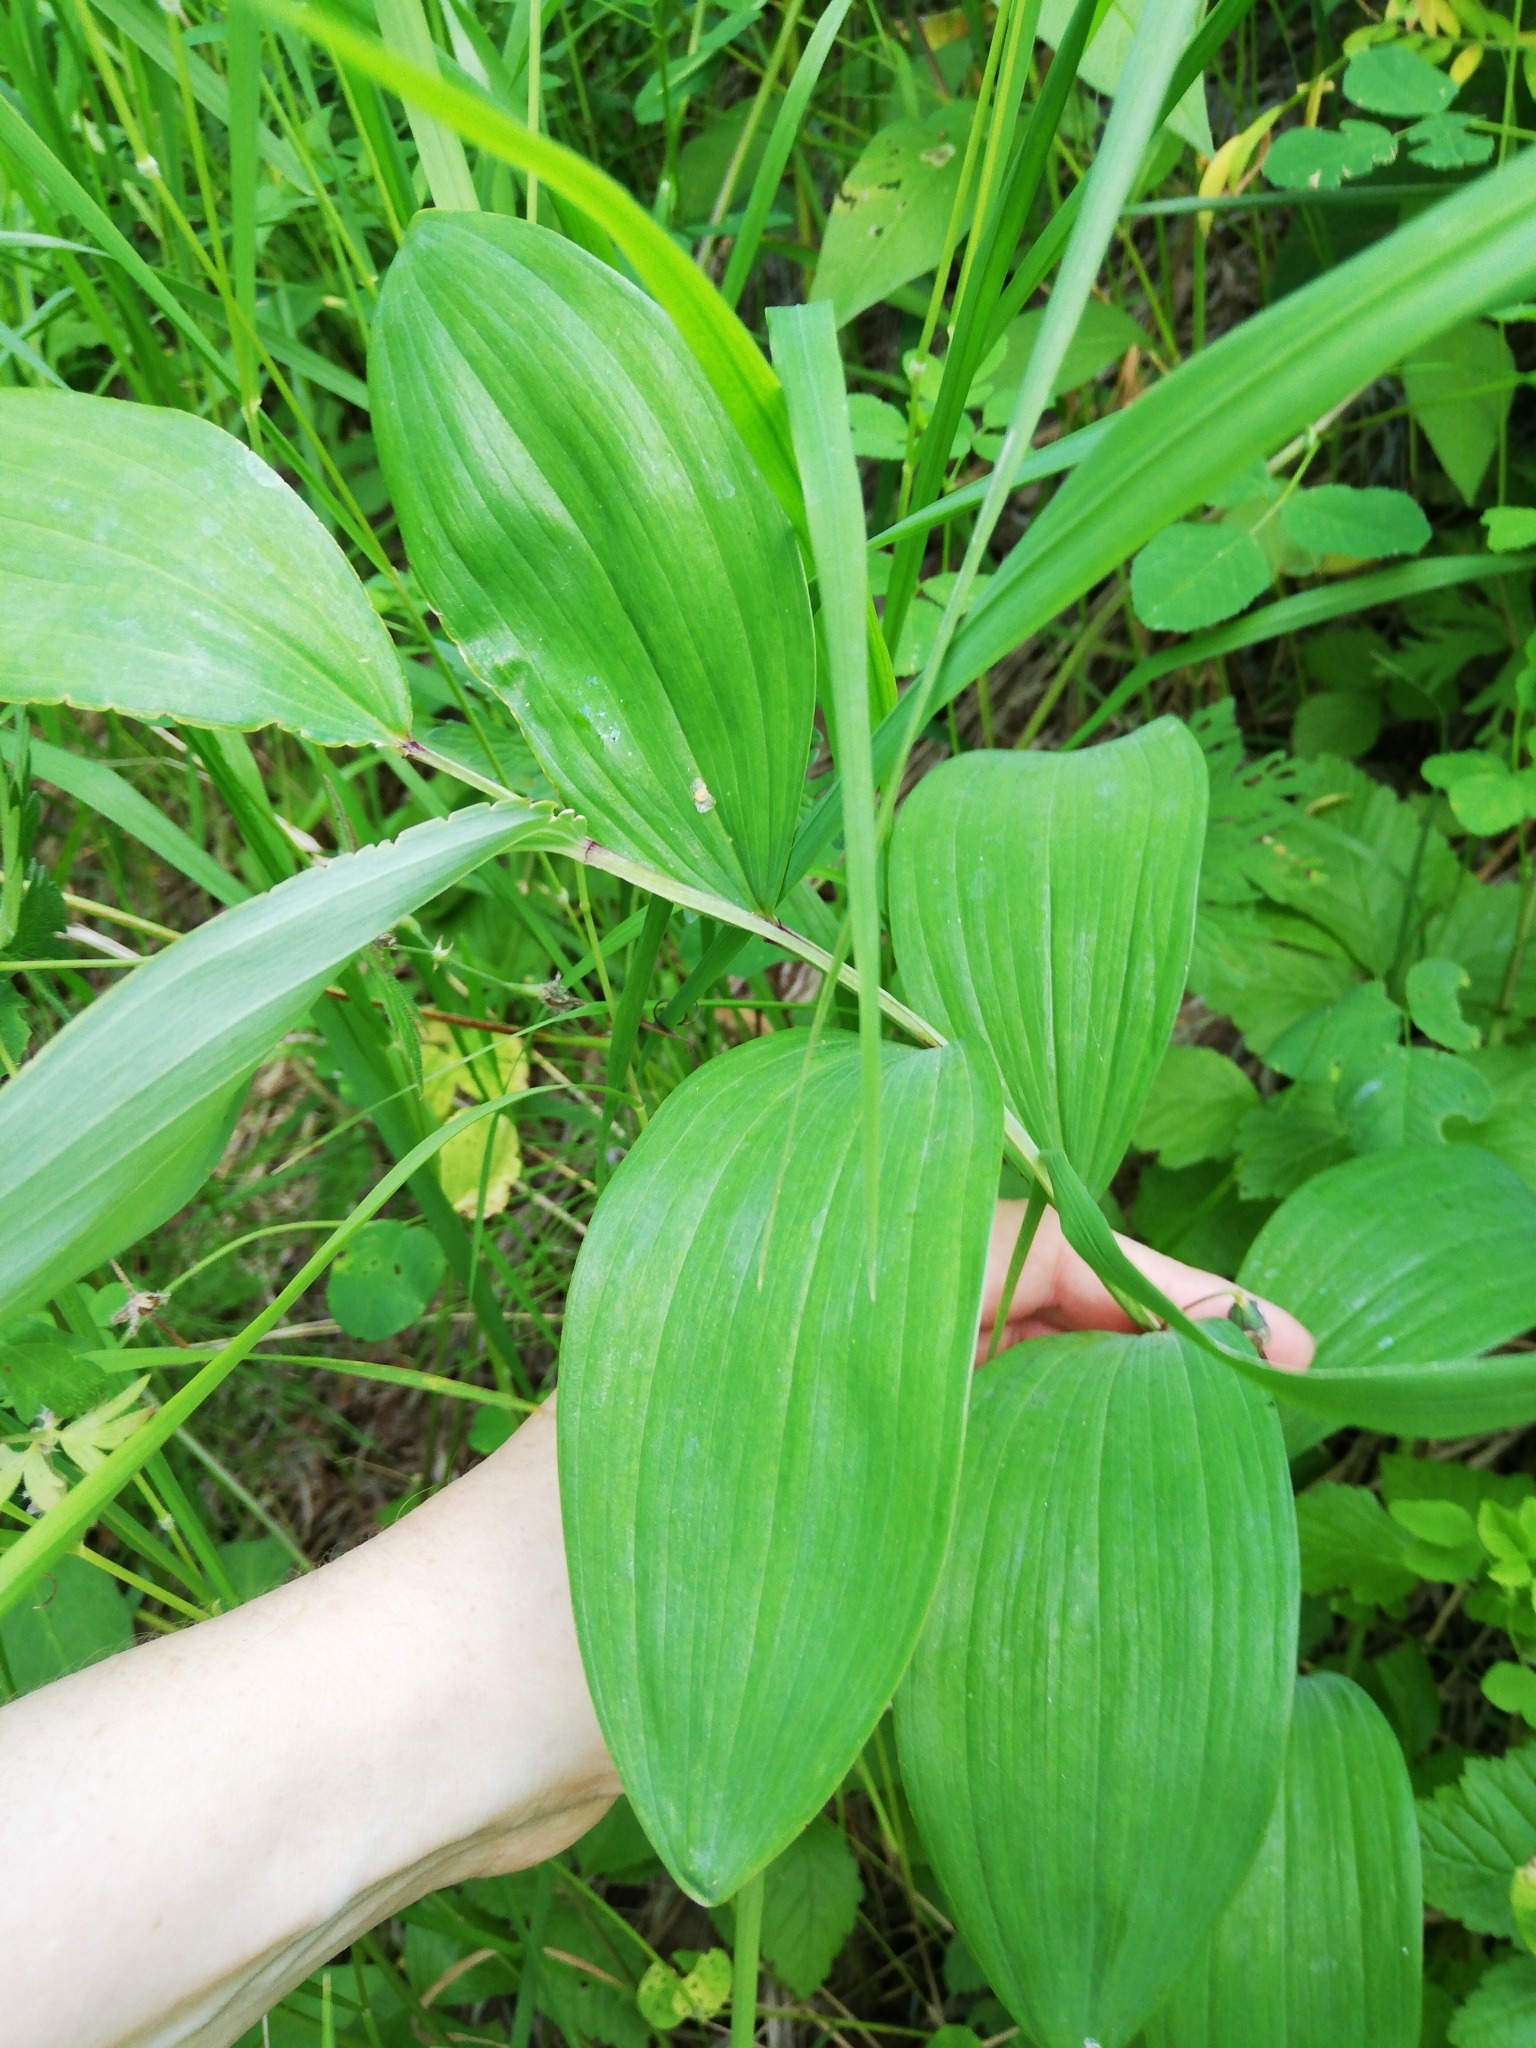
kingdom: Plantae
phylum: Tracheophyta
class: Liliopsida
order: Asparagales
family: Asparagaceae
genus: Polygonatum
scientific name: Polygonatum odoratum
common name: Angular solomon's-seal
